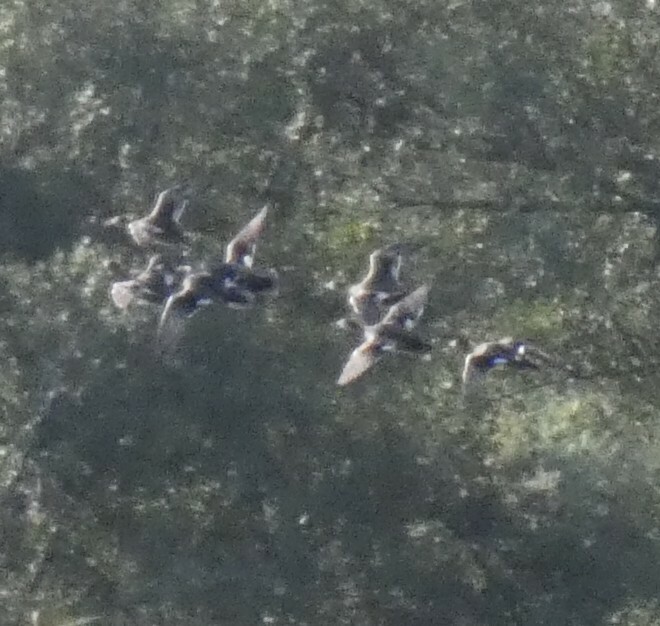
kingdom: Animalia
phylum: Chordata
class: Aves
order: Anseriformes
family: Anatidae
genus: Mareca
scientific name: Mareca strepera
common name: Gadwall
